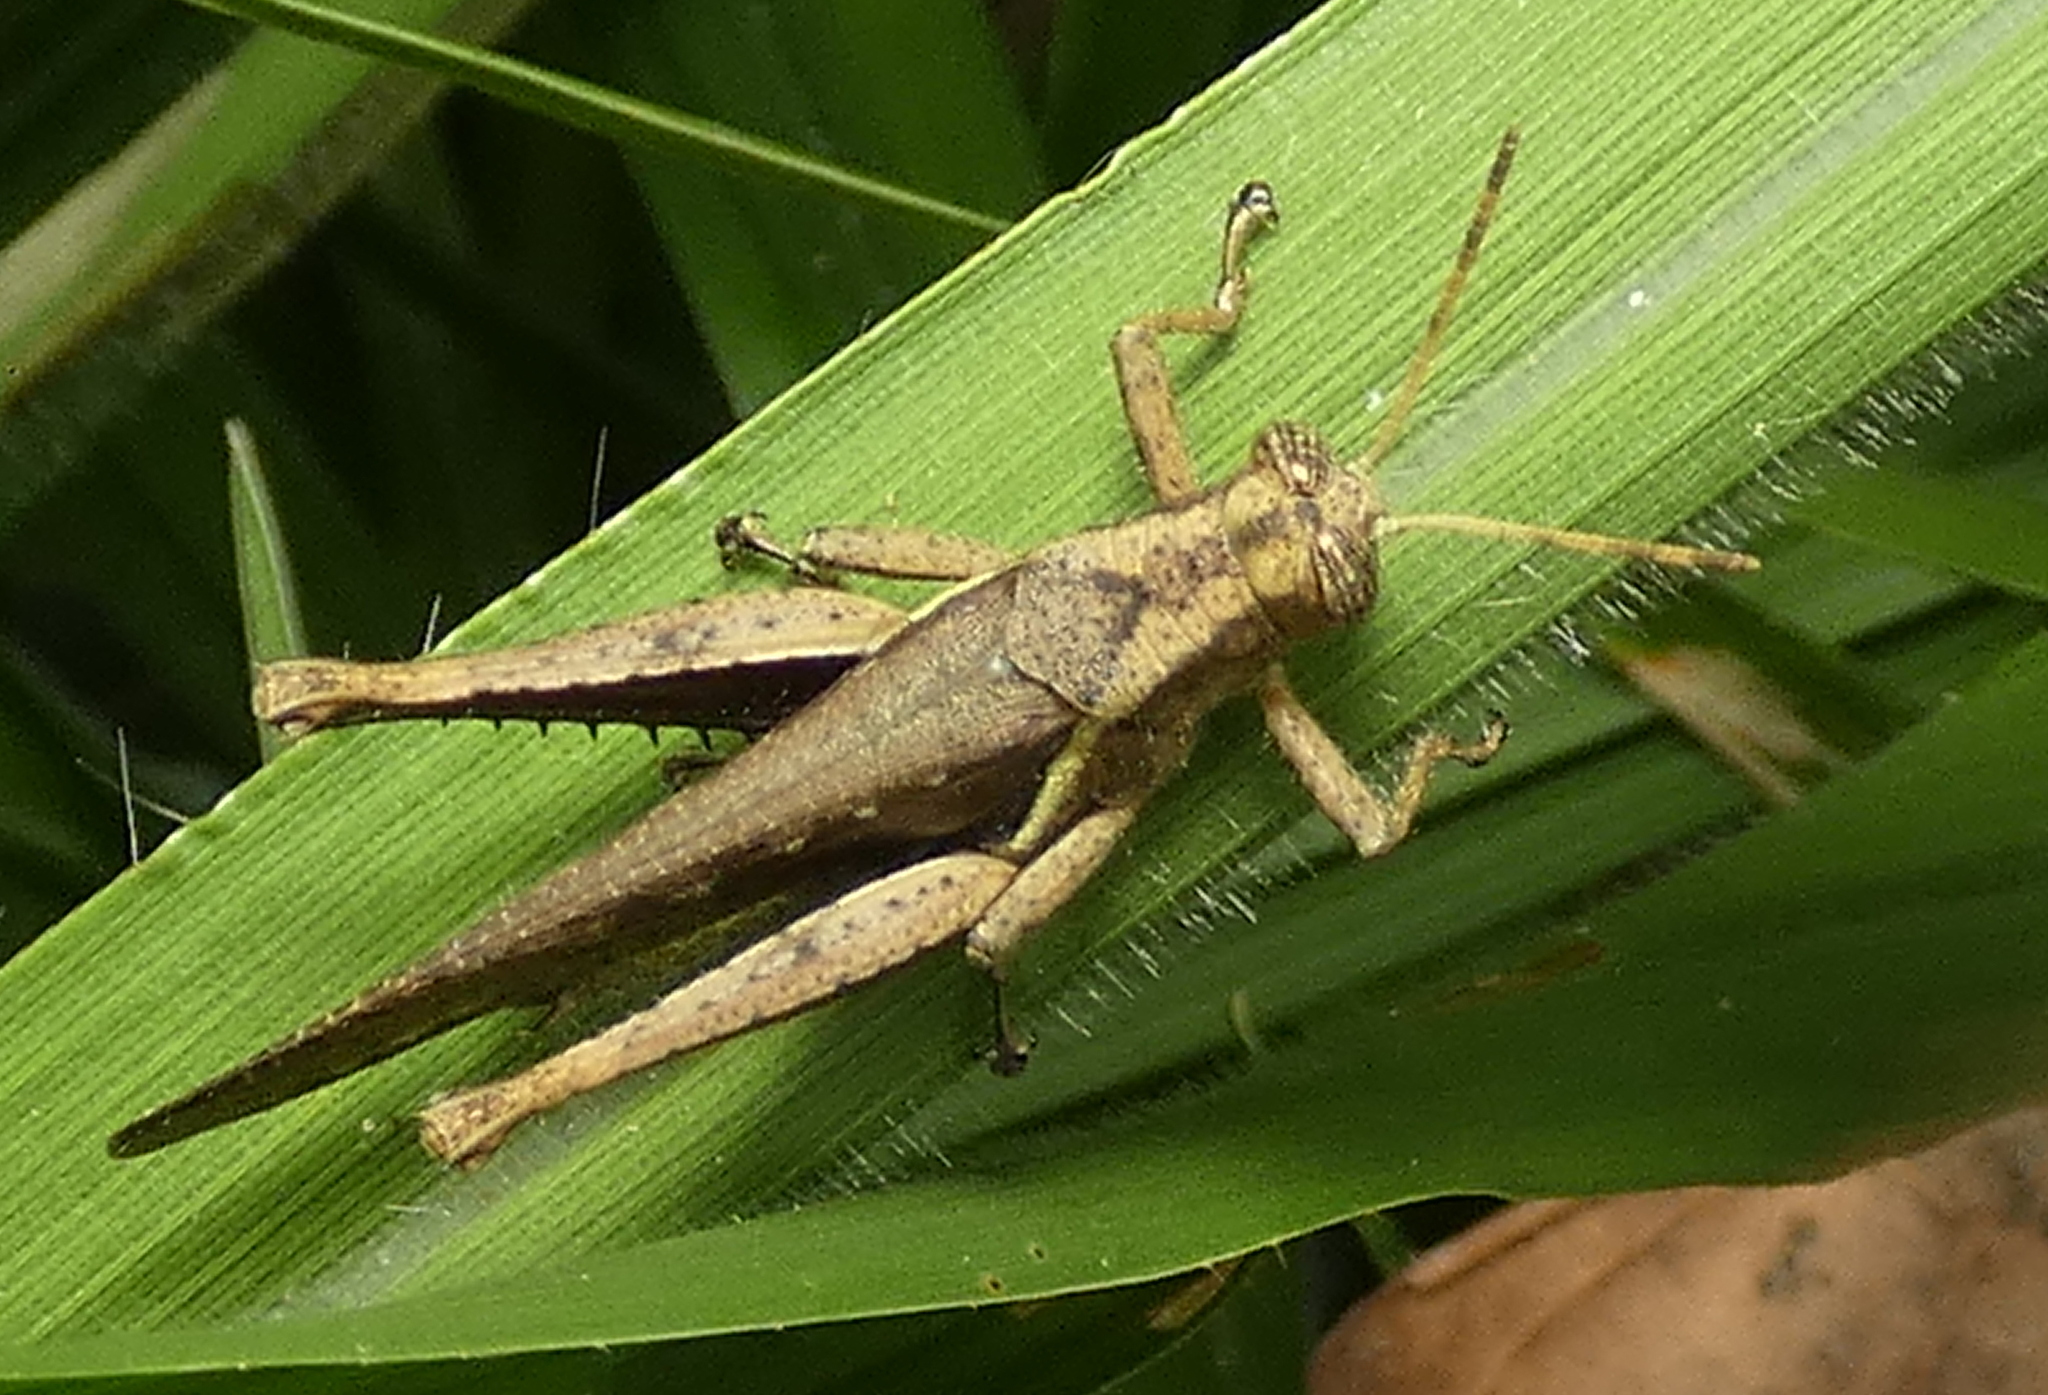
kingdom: Animalia
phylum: Arthropoda
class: Insecta
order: Orthoptera
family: Acrididae
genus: Abracris
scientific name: Abracris flavolineata
